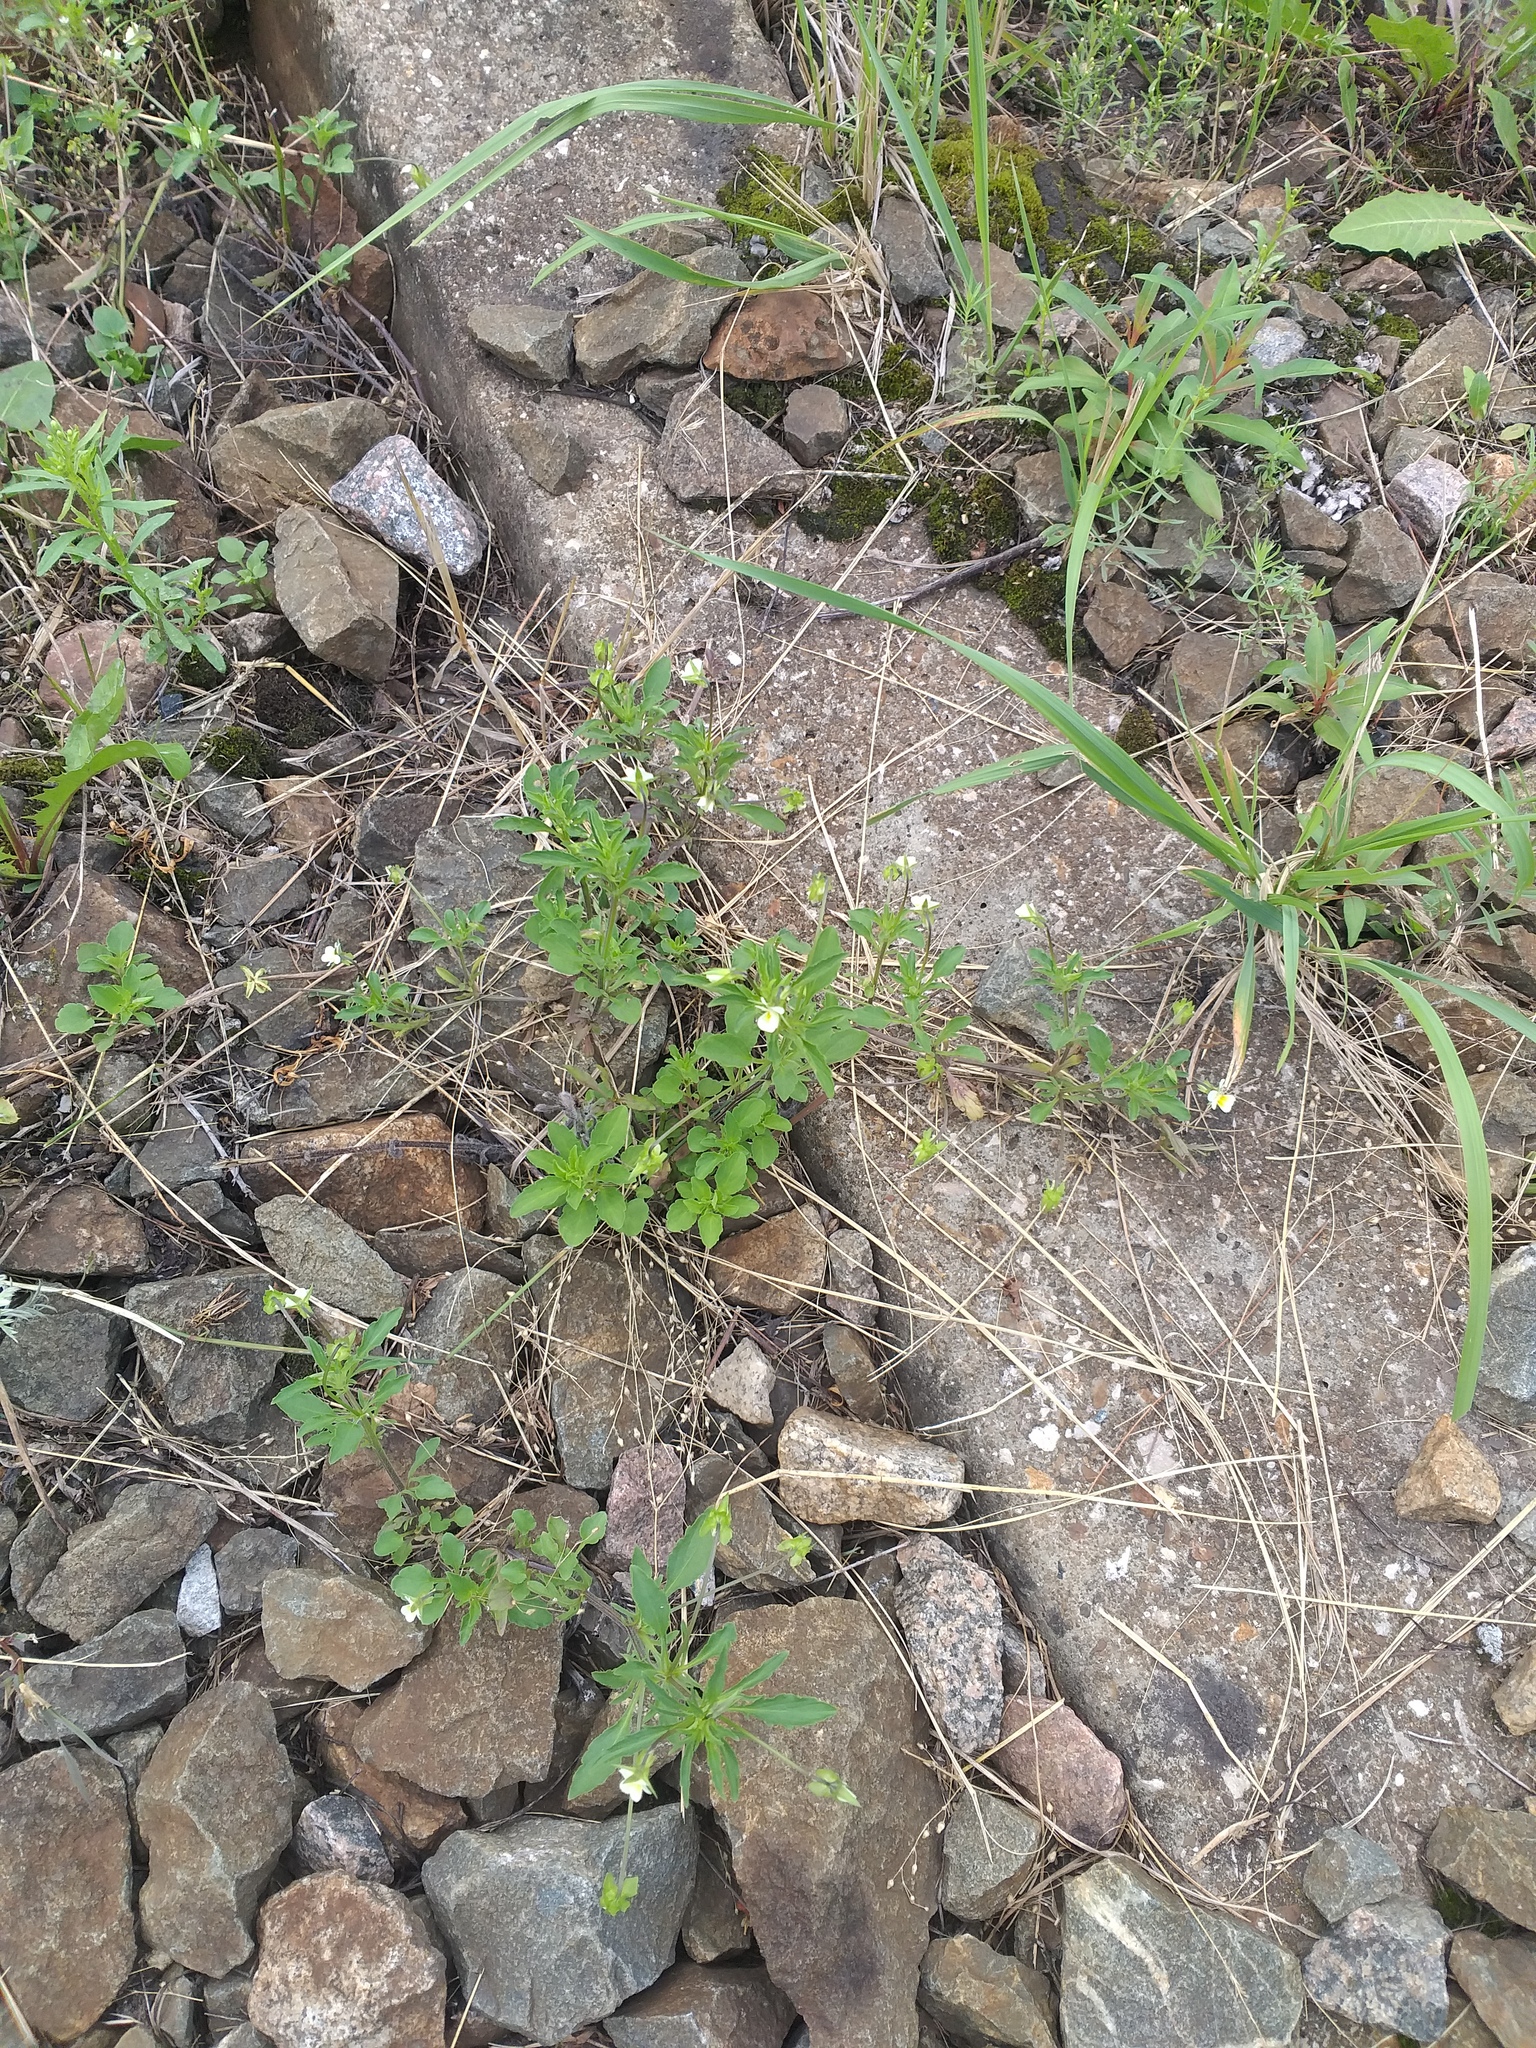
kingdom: Plantae
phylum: Tracheophyta
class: Magnoliopsida
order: Malpighiales
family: Violaceae
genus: Viola
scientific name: Viola arvensis
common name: Field pansy
